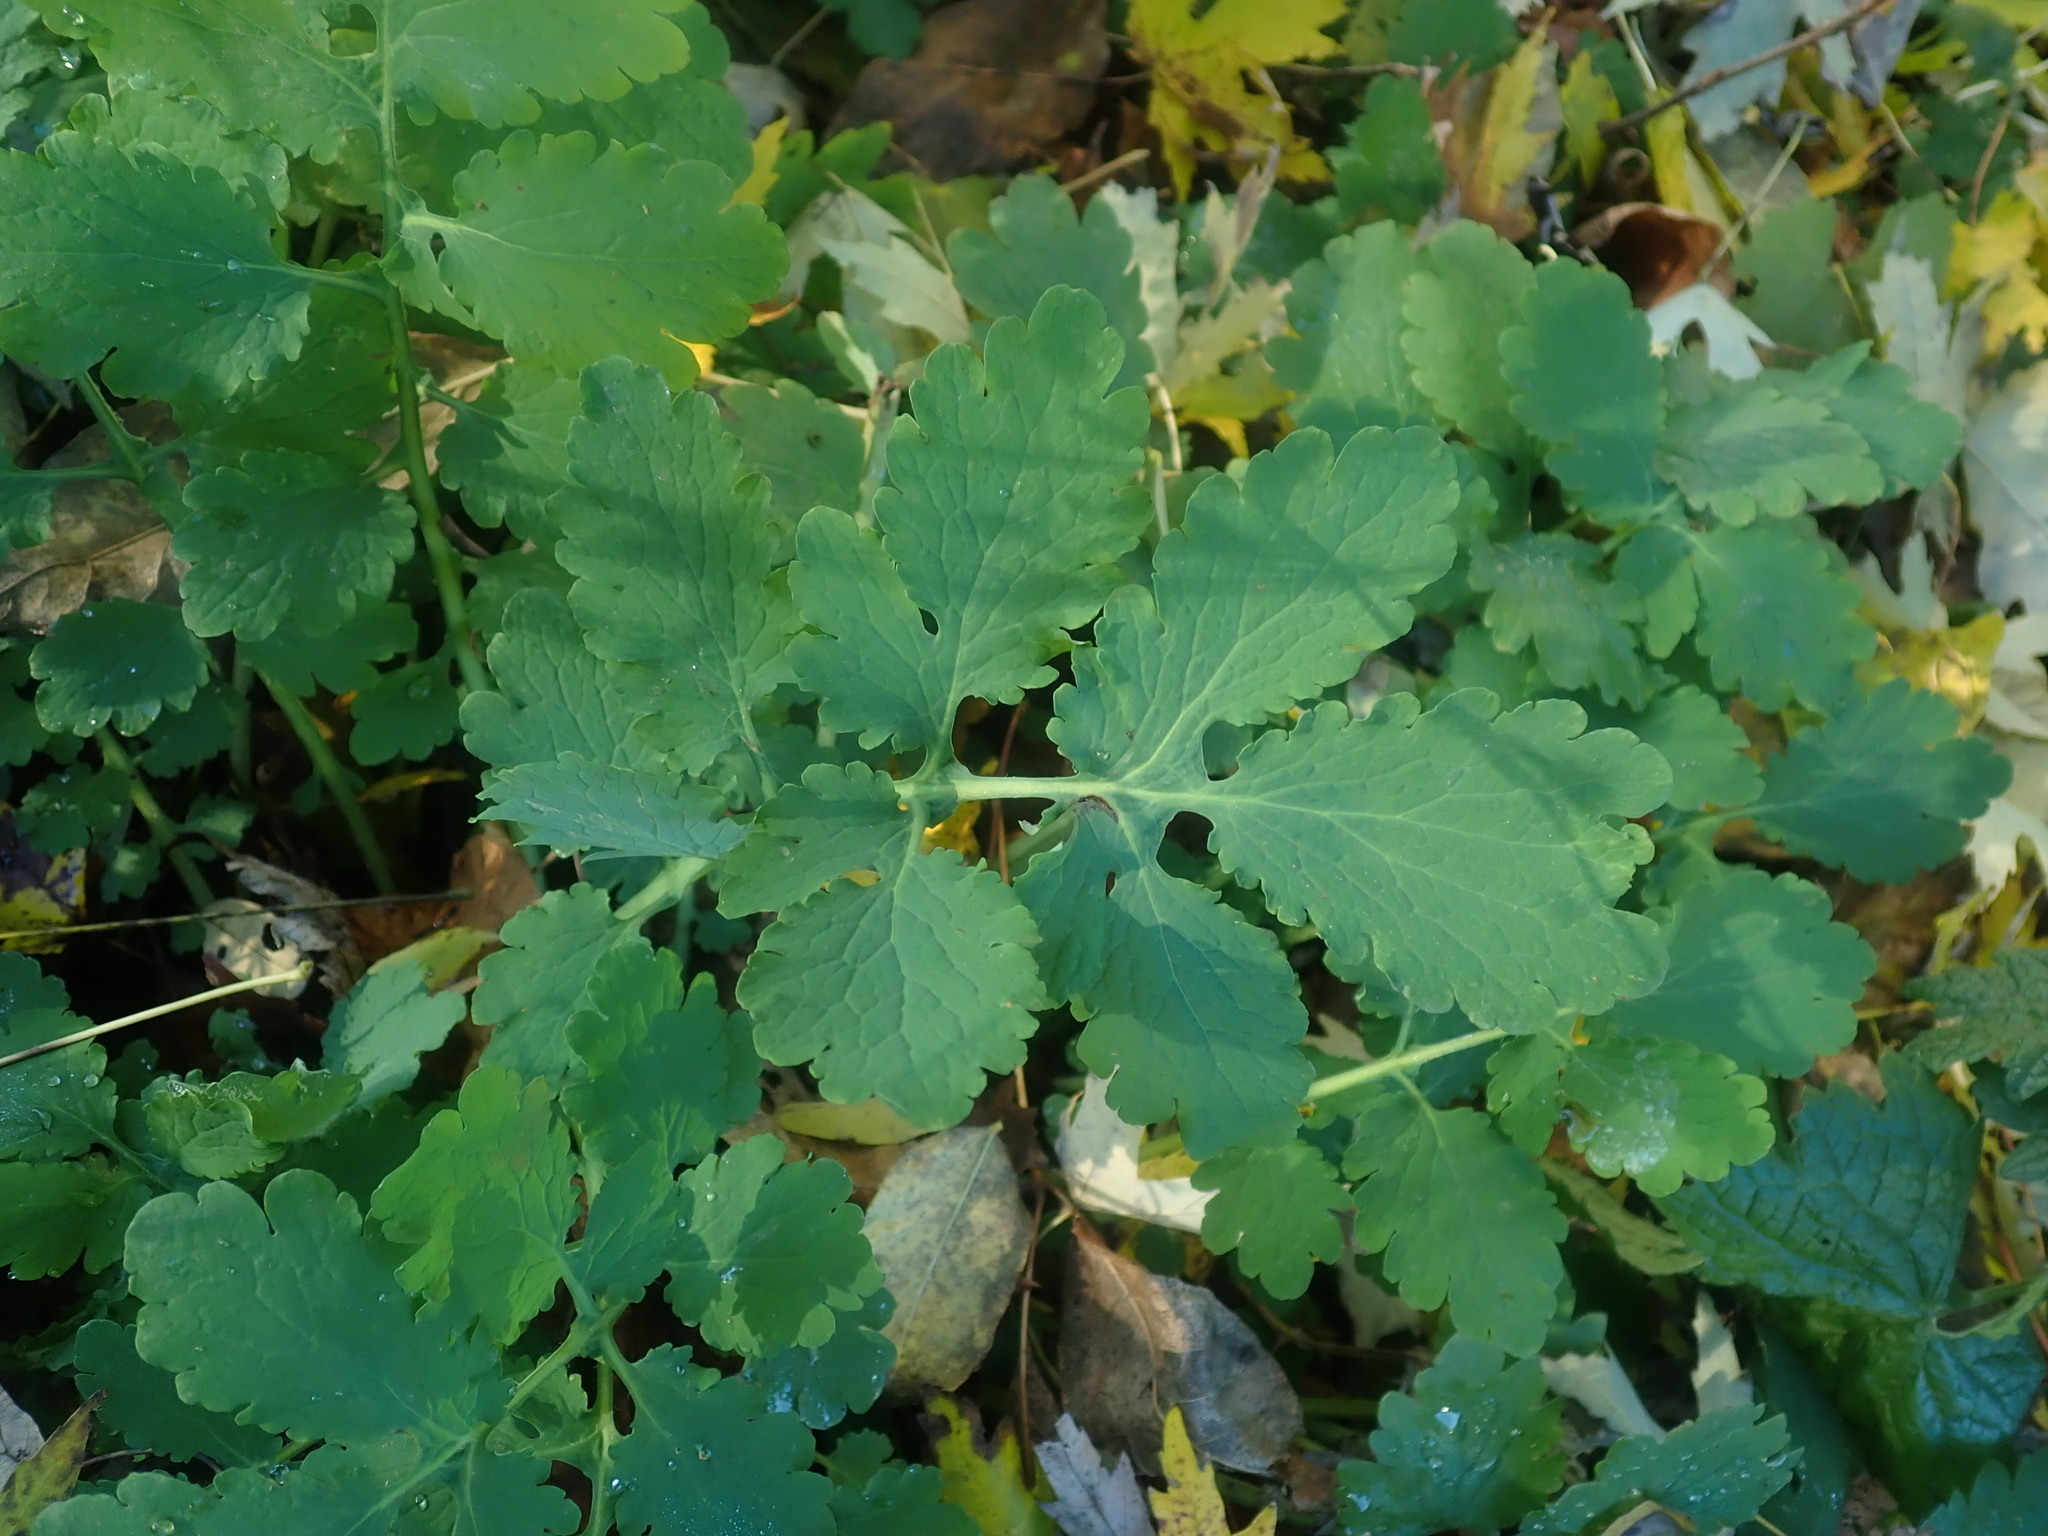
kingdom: Plantae
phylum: Tracheophyta
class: Magnoliopsida
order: Ranunculales
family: Papaveraceae
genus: Chelidonium
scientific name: Chelidonium majus
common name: Greater celandine
